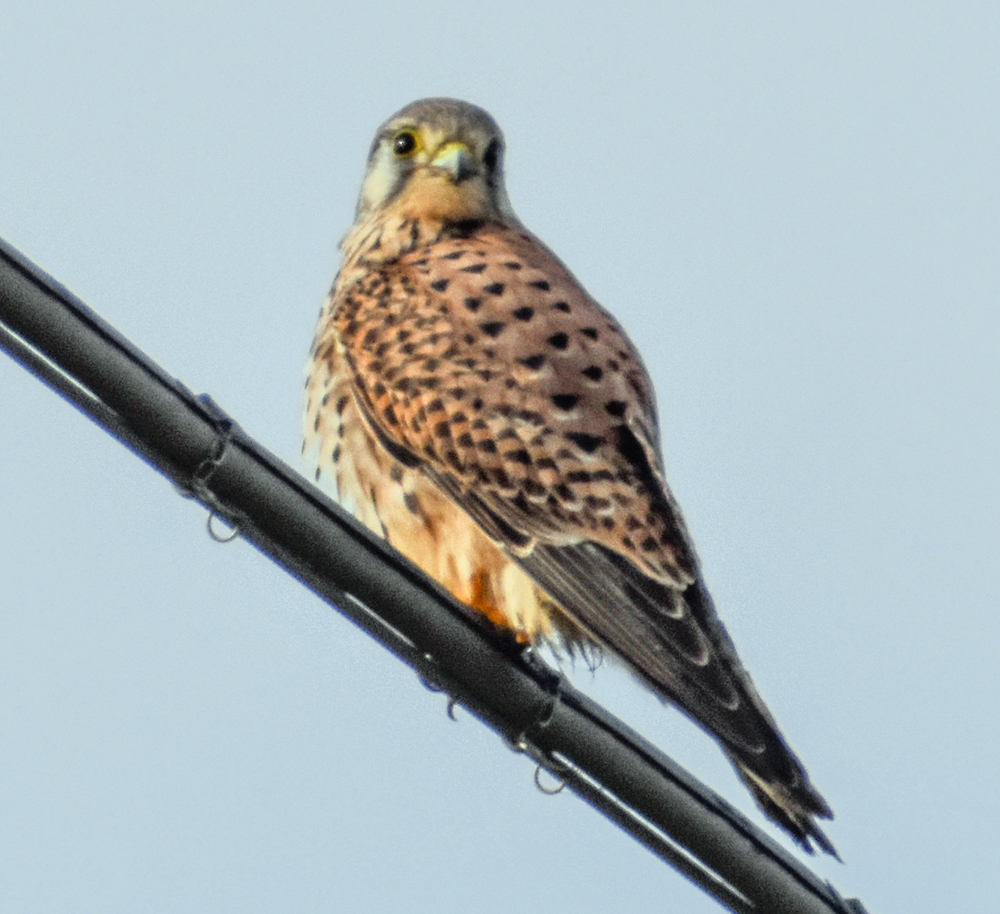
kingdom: Animalia
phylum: Chordata
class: Aves
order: Falconiformes
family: Falconidae
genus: Falco
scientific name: Falco tinnunculus
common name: Common kestrel
